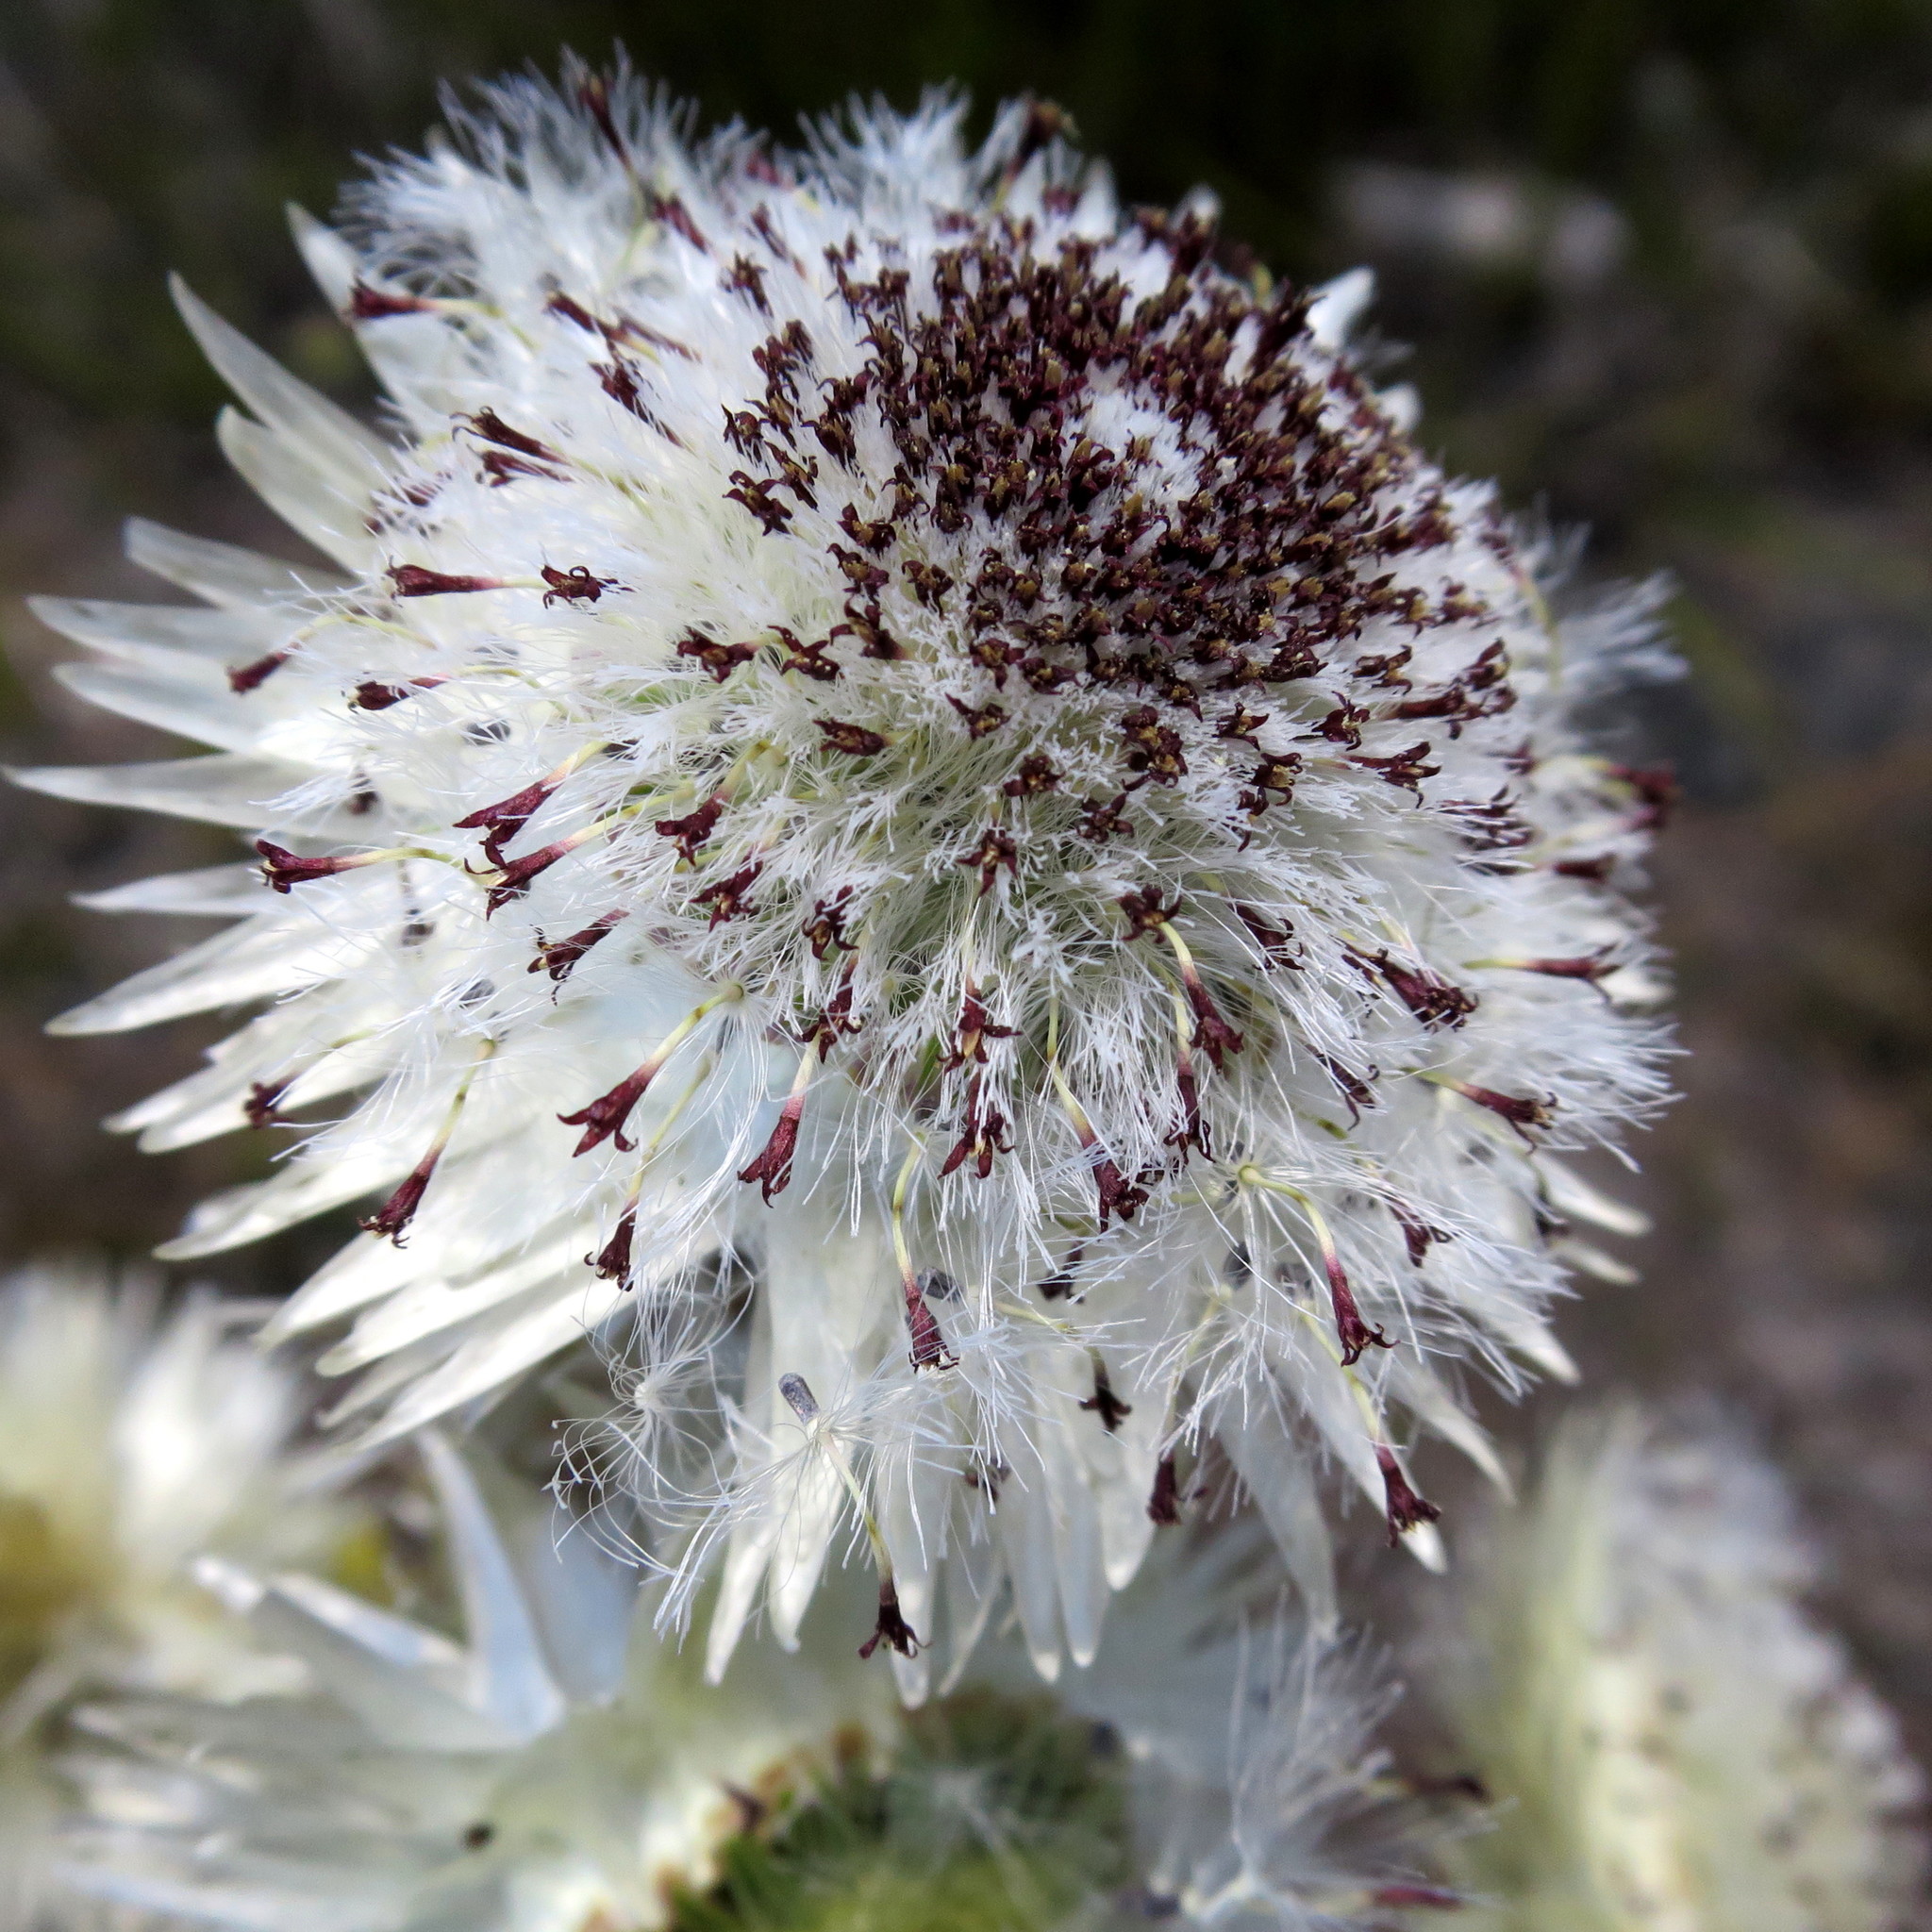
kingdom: Plantae
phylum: Tracheophyta
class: Magnoliopsida
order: Asterales
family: Asteraceae
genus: Syncarpha
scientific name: Syncarpha vestita
